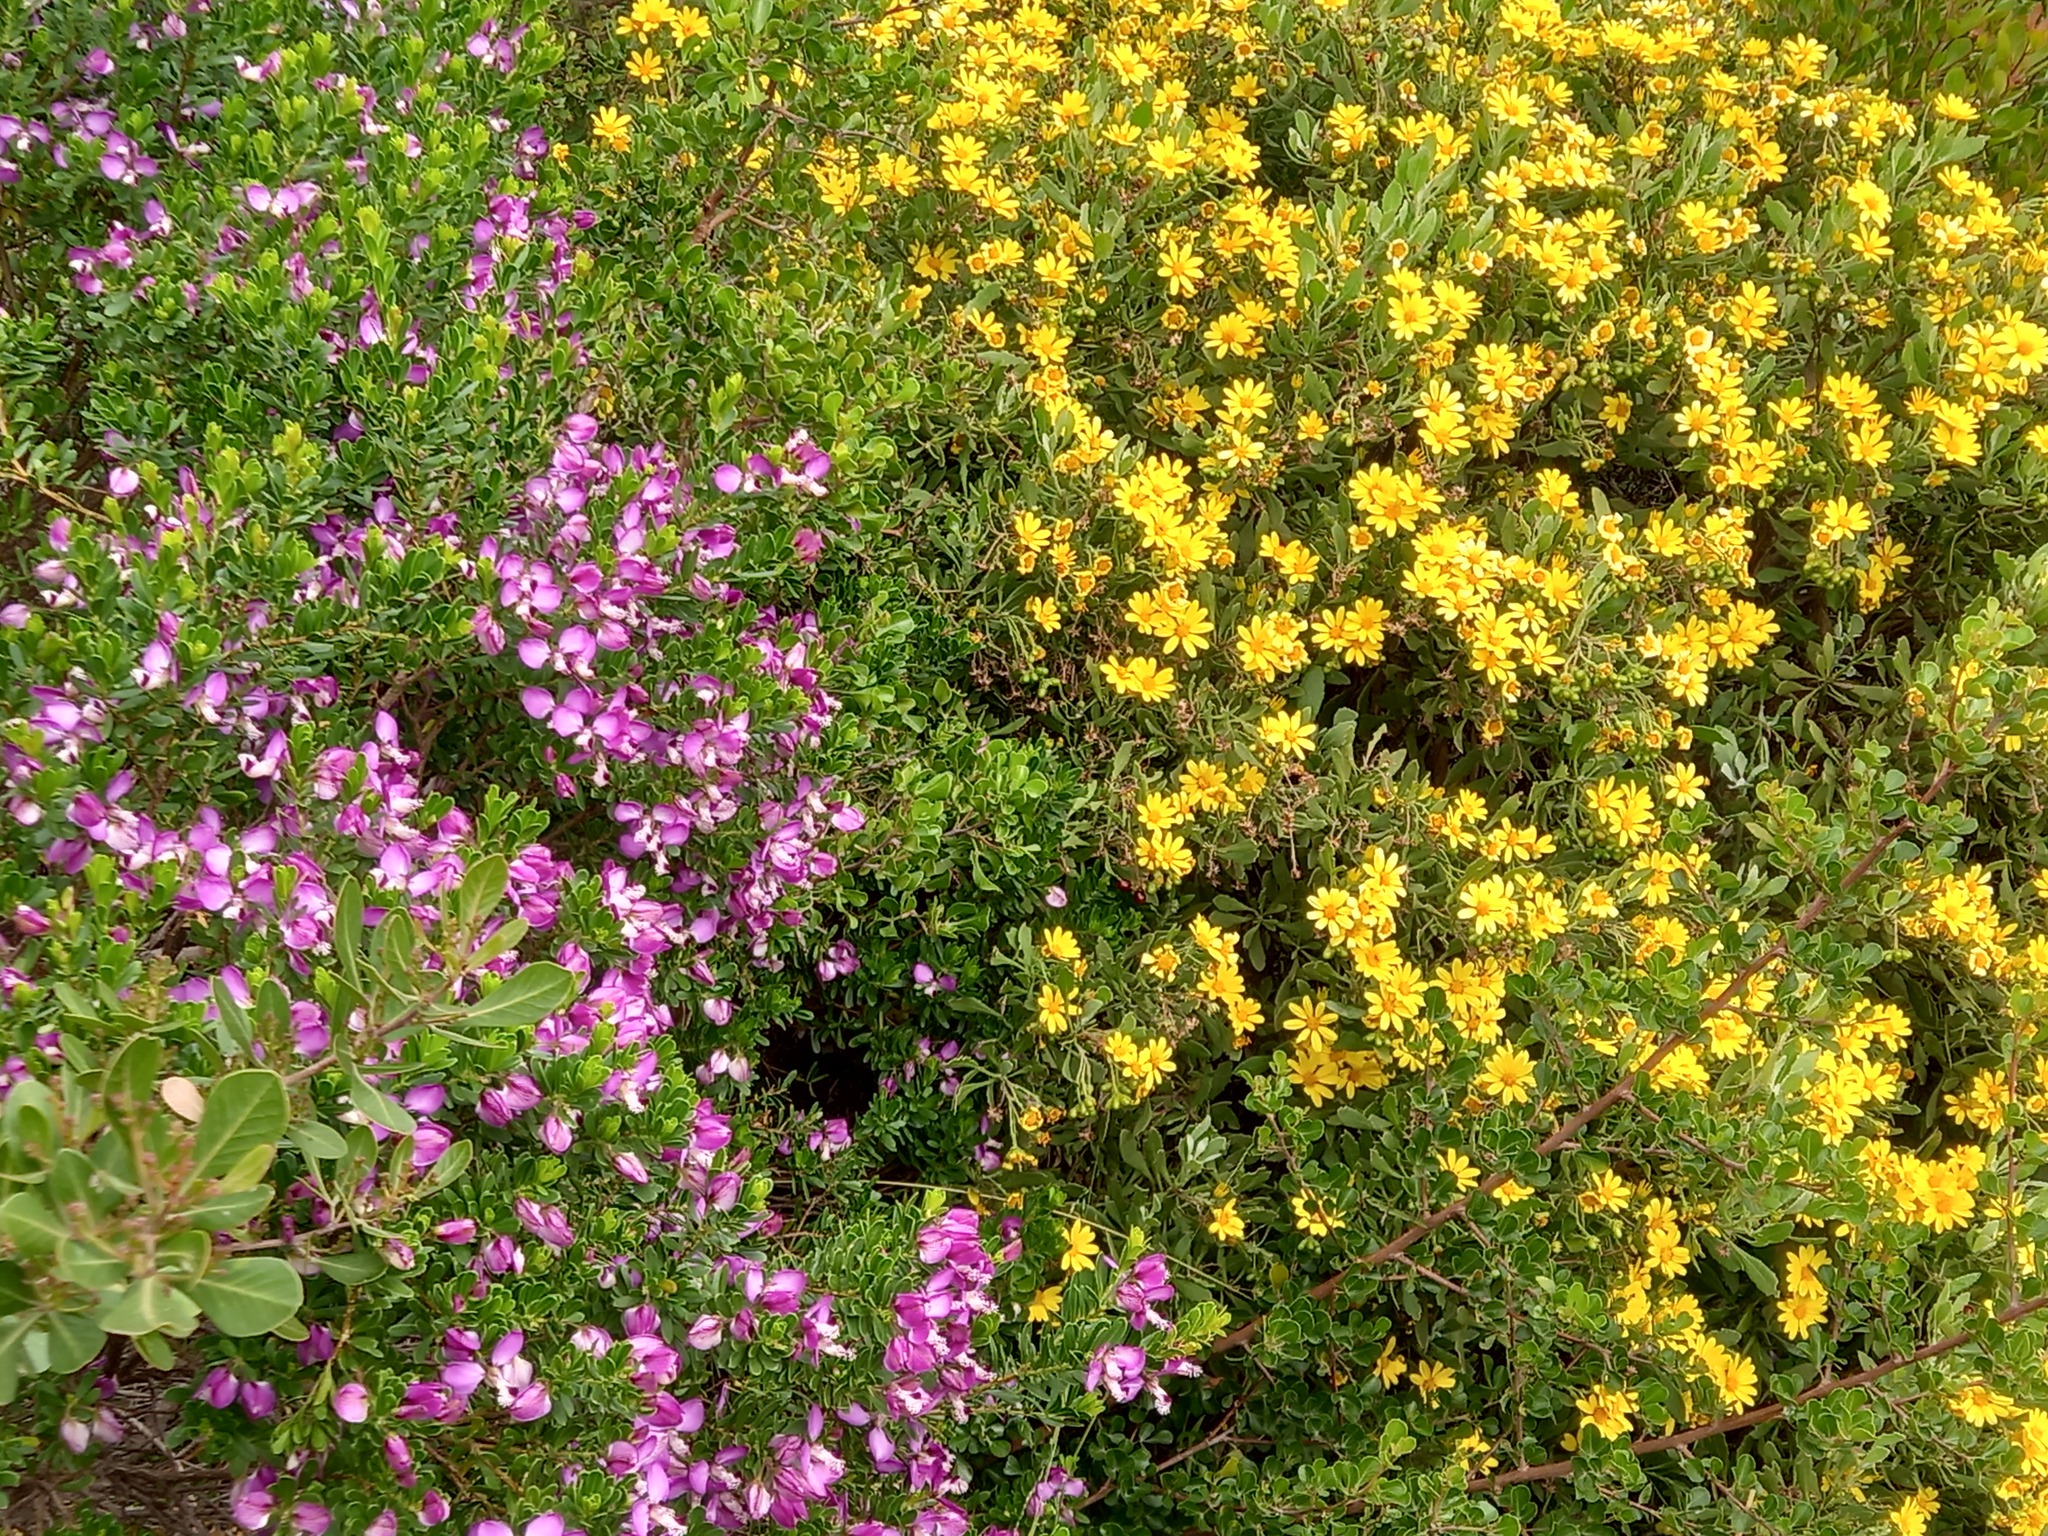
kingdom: Plantae
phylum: Tracheophyta
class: Magnoliopsida
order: Fabales
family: Polygalaceae
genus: Polygala
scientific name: Polygala myrtifolia
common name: Myrtle-leaf milkwort
